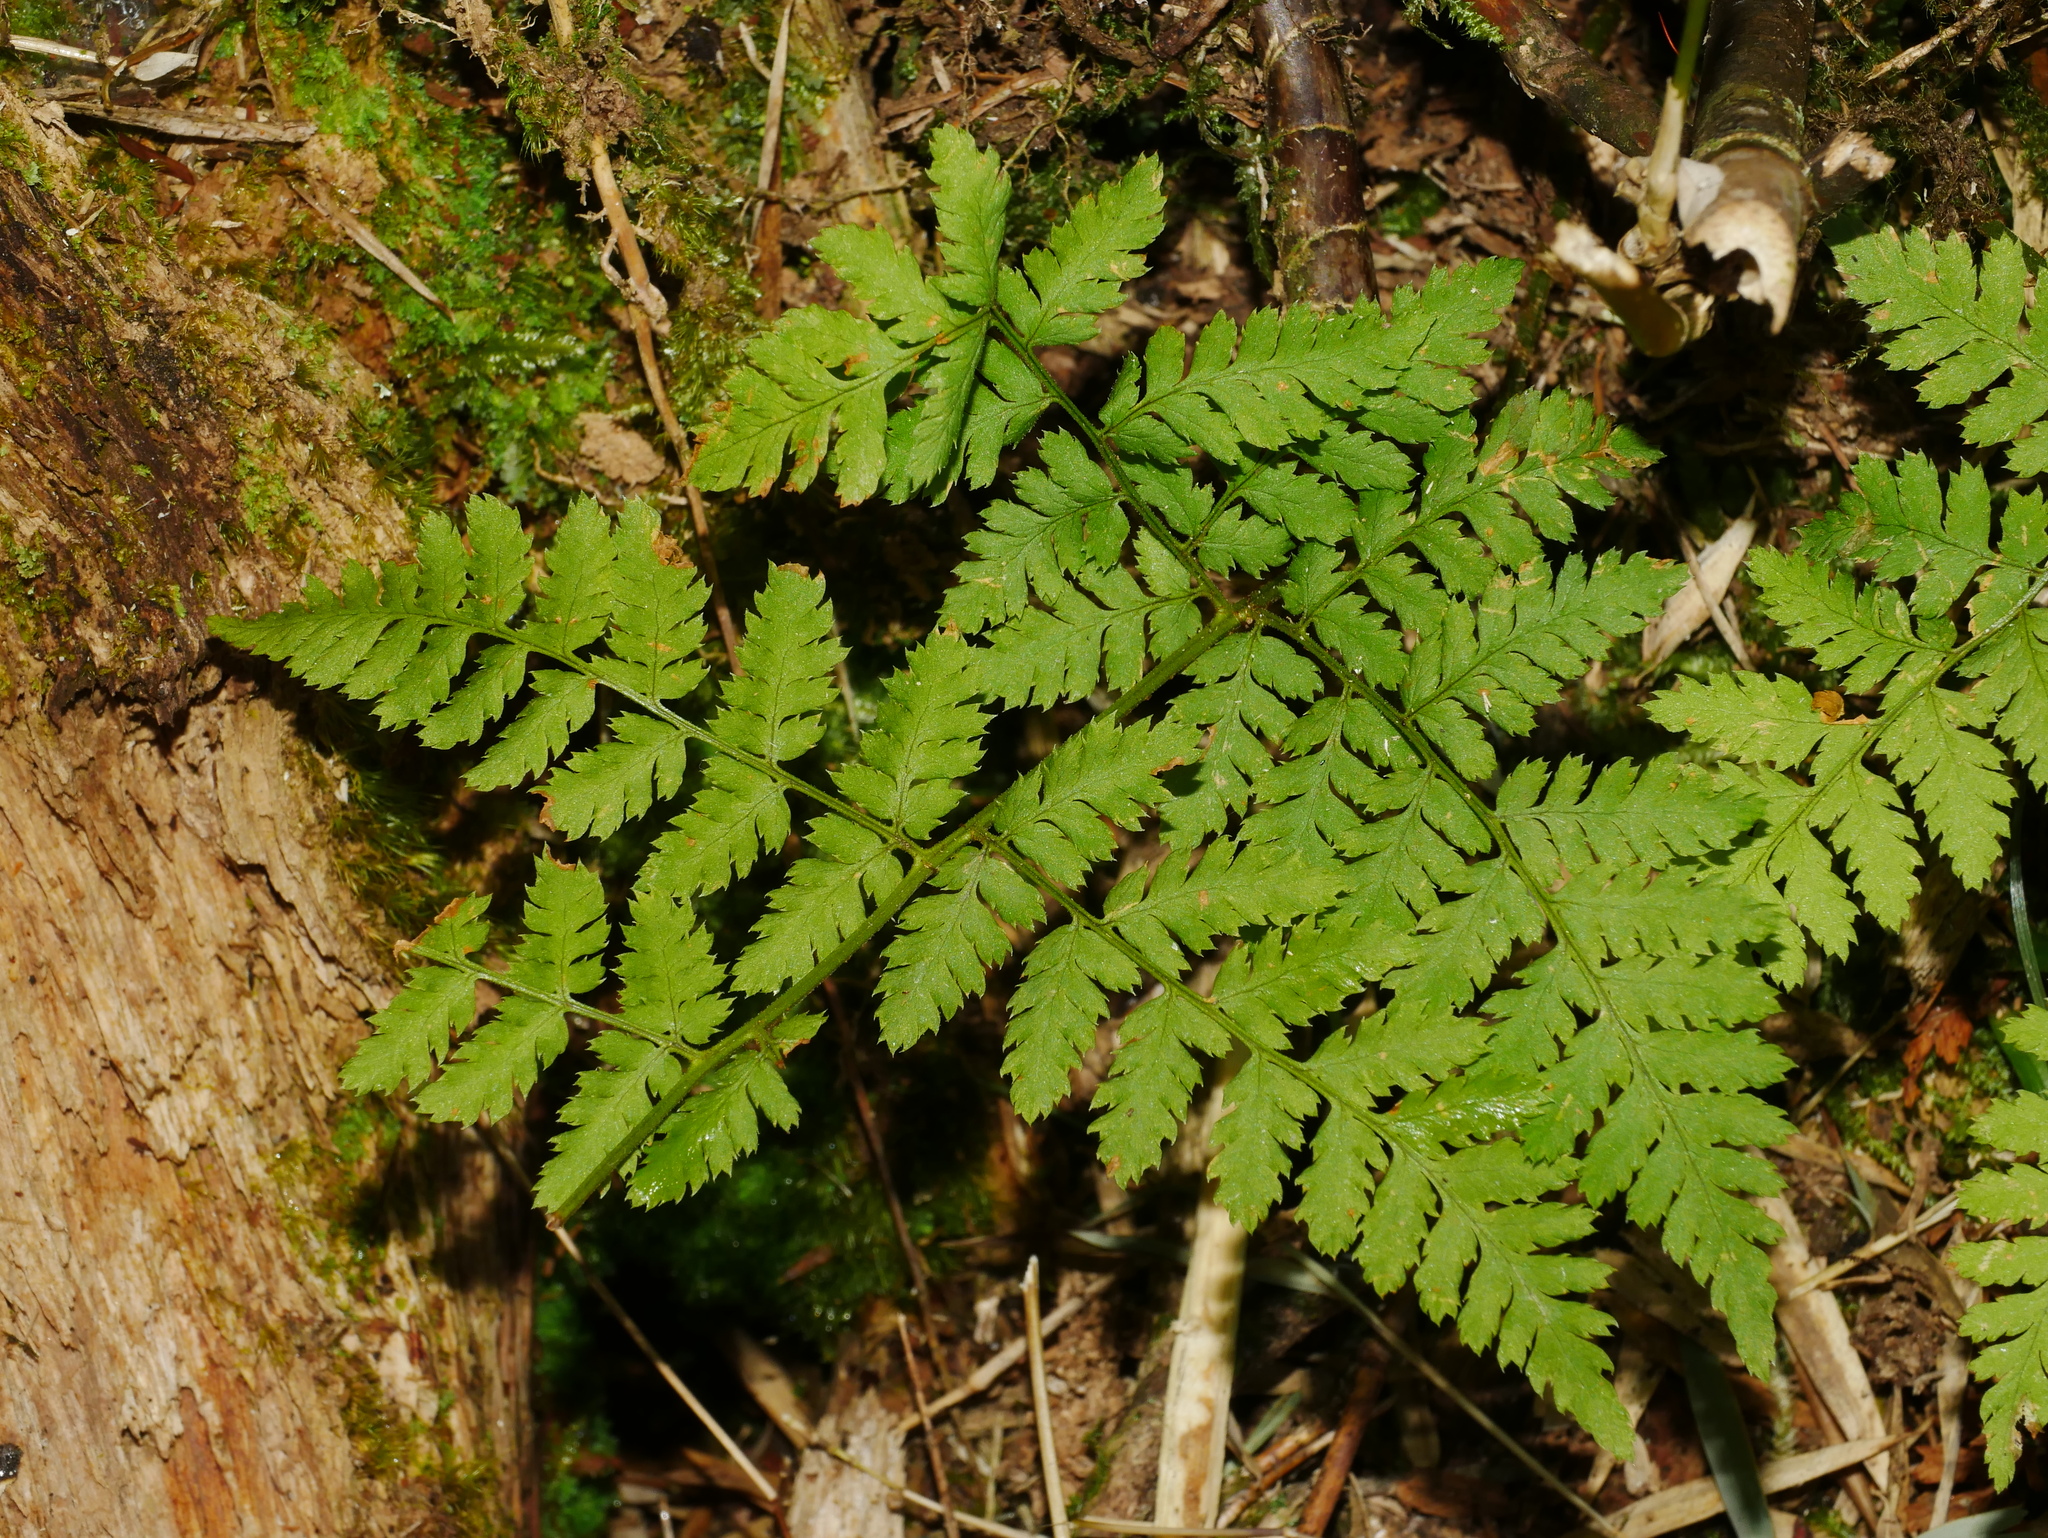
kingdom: Plantae
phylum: Tracheophyta
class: Polypodiopsida
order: Polypodiales
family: Dryopteridaceae
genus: Dryopteris
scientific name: Dryopteris expansa
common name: Northern buckler fern
